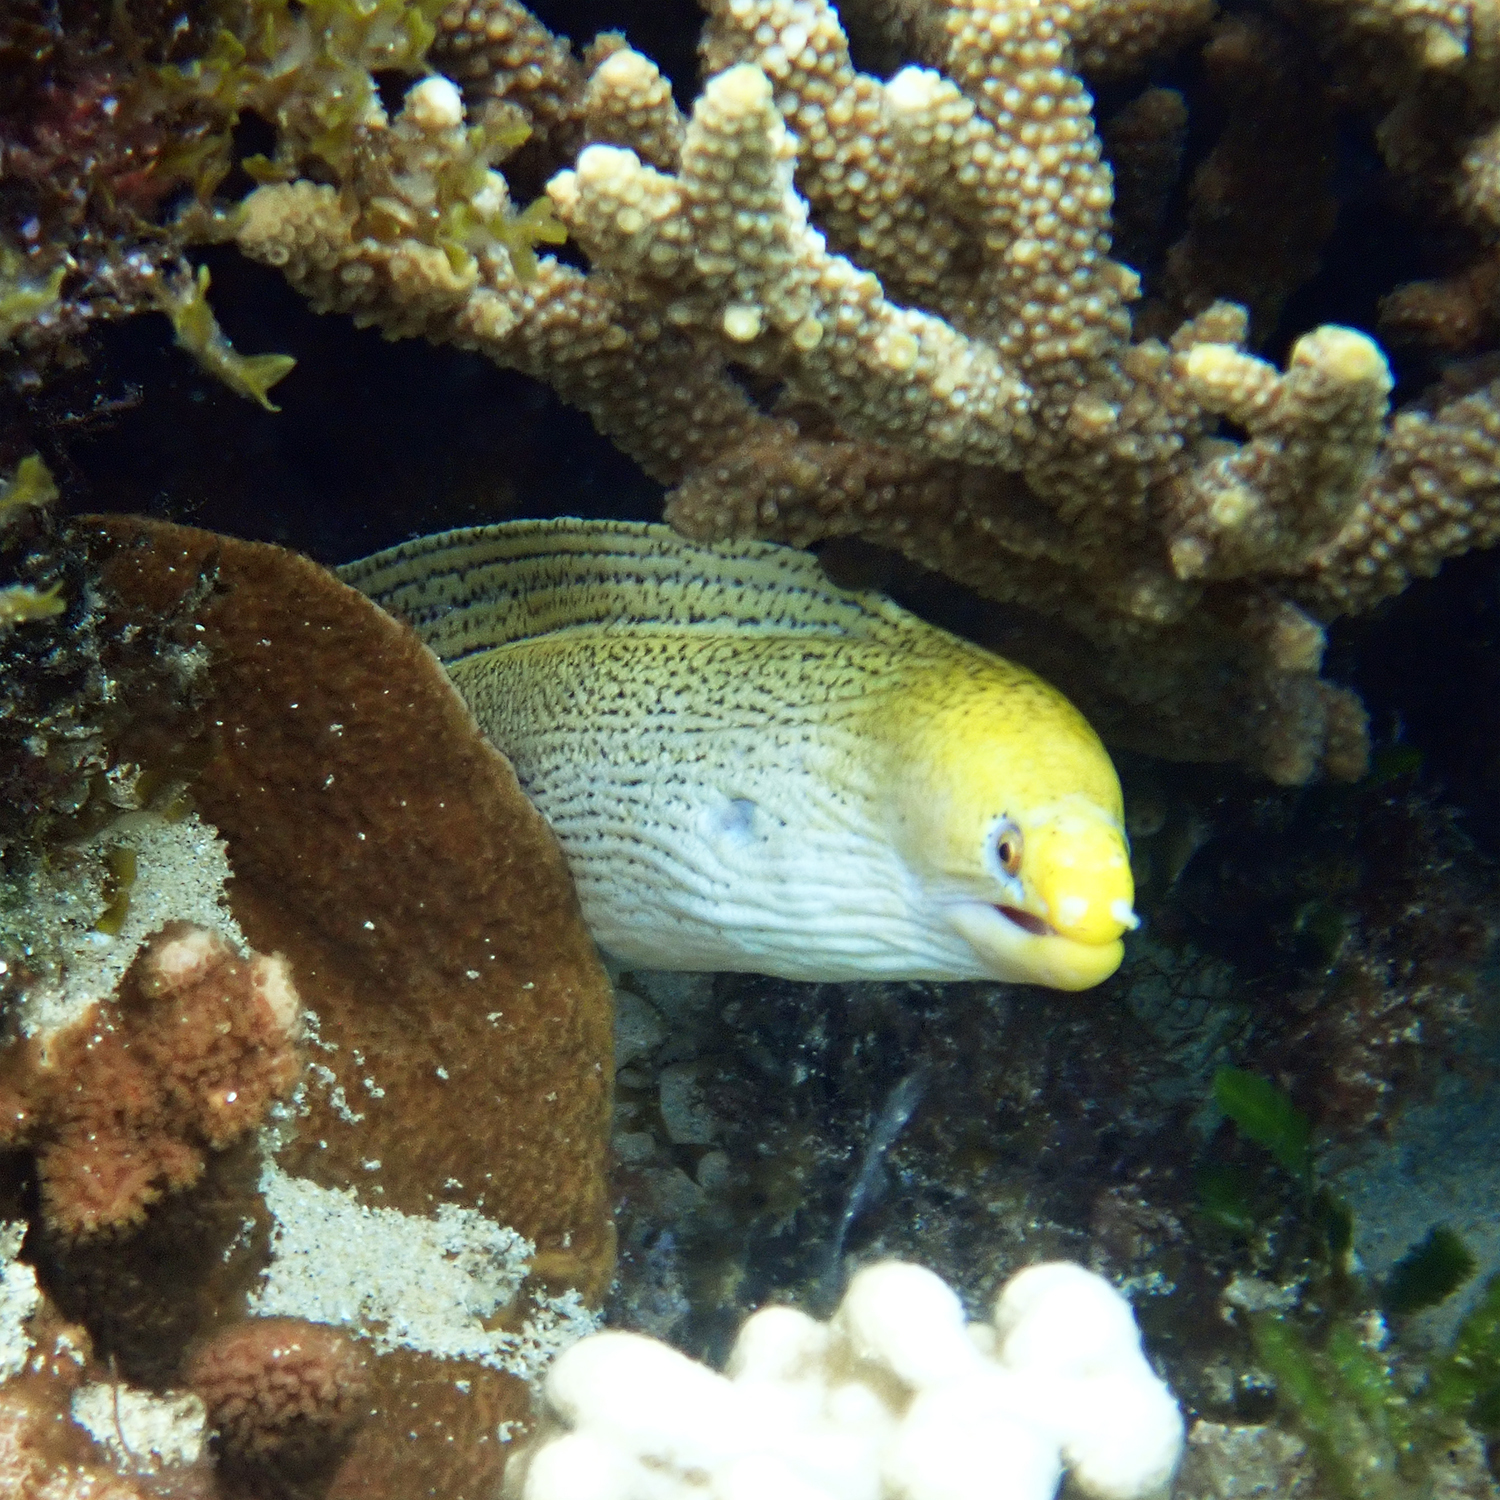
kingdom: Animalia
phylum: Chordata
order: Anguilliformes
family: Muraenidae
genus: Gymnothorax
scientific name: Gymnothorax eurostus
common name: Stout moray
